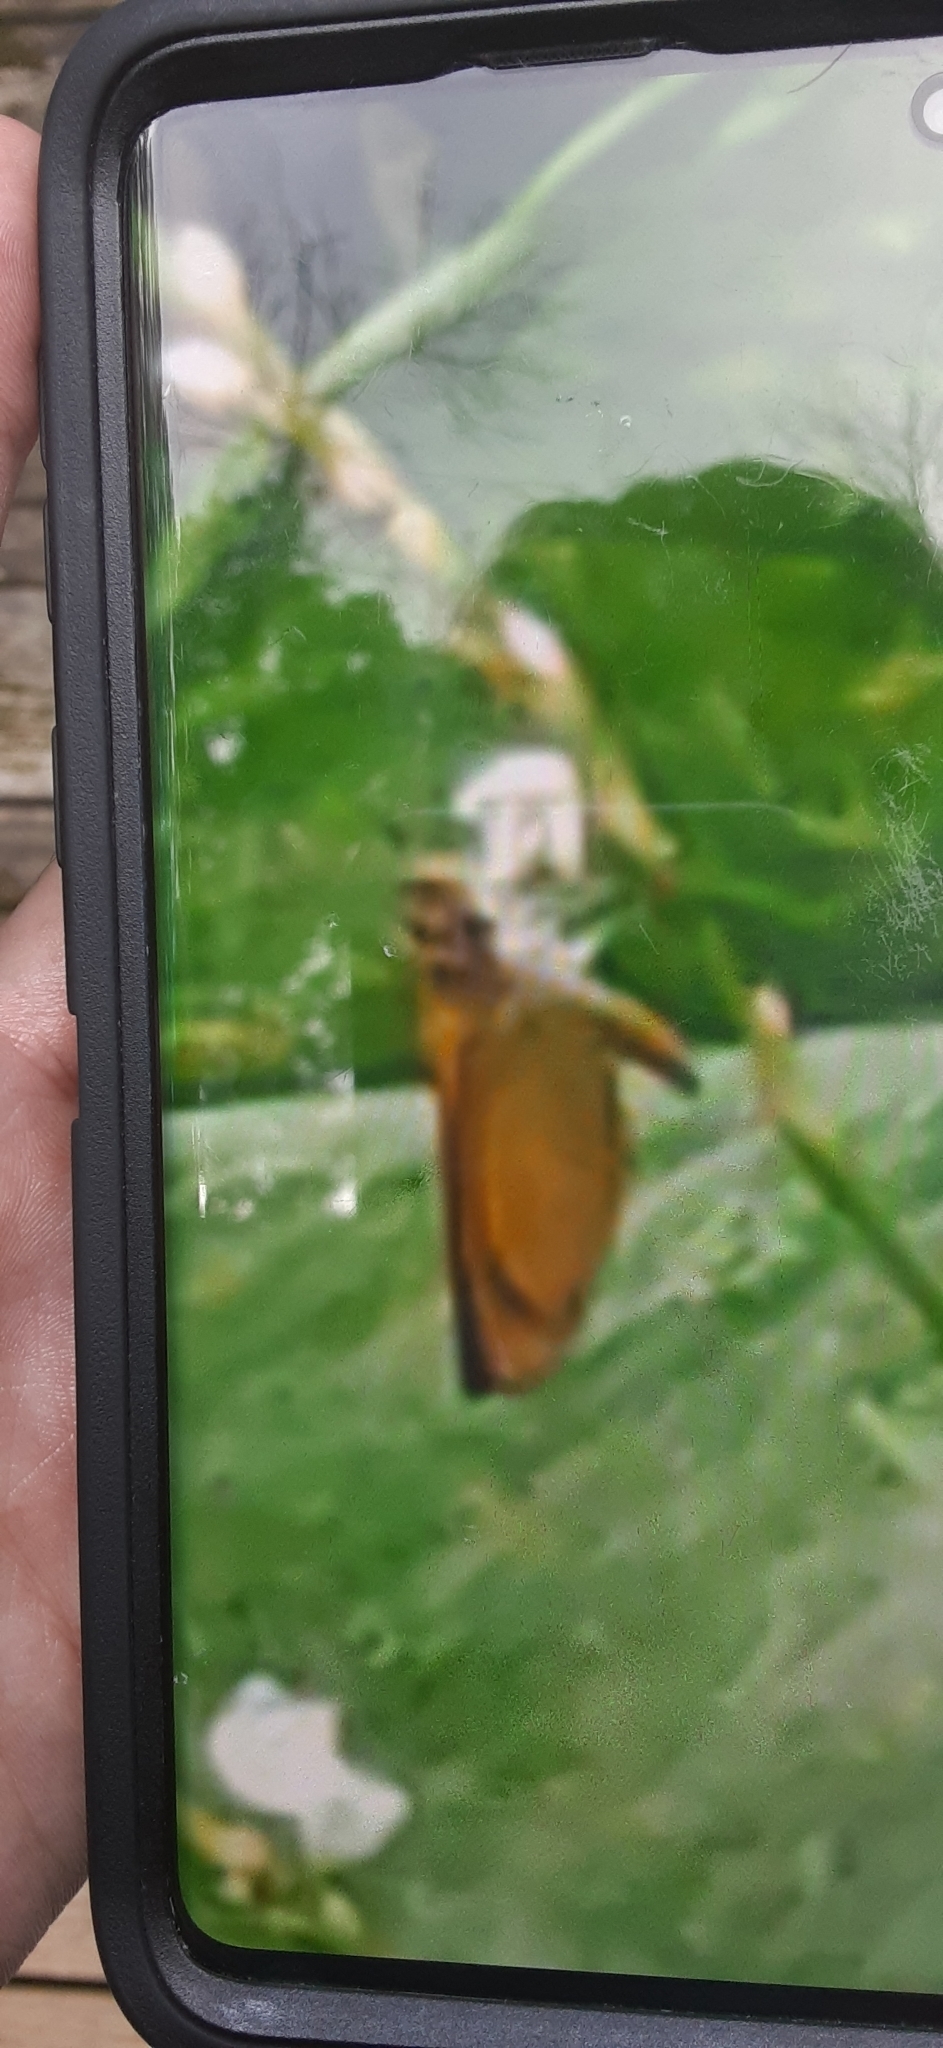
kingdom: Animalia
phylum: Arthropoda
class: Insecta
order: Lepidoptera
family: Hesperiidae
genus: Ancyloxypha
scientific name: Ancyloxypha numitor
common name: Least skipper
